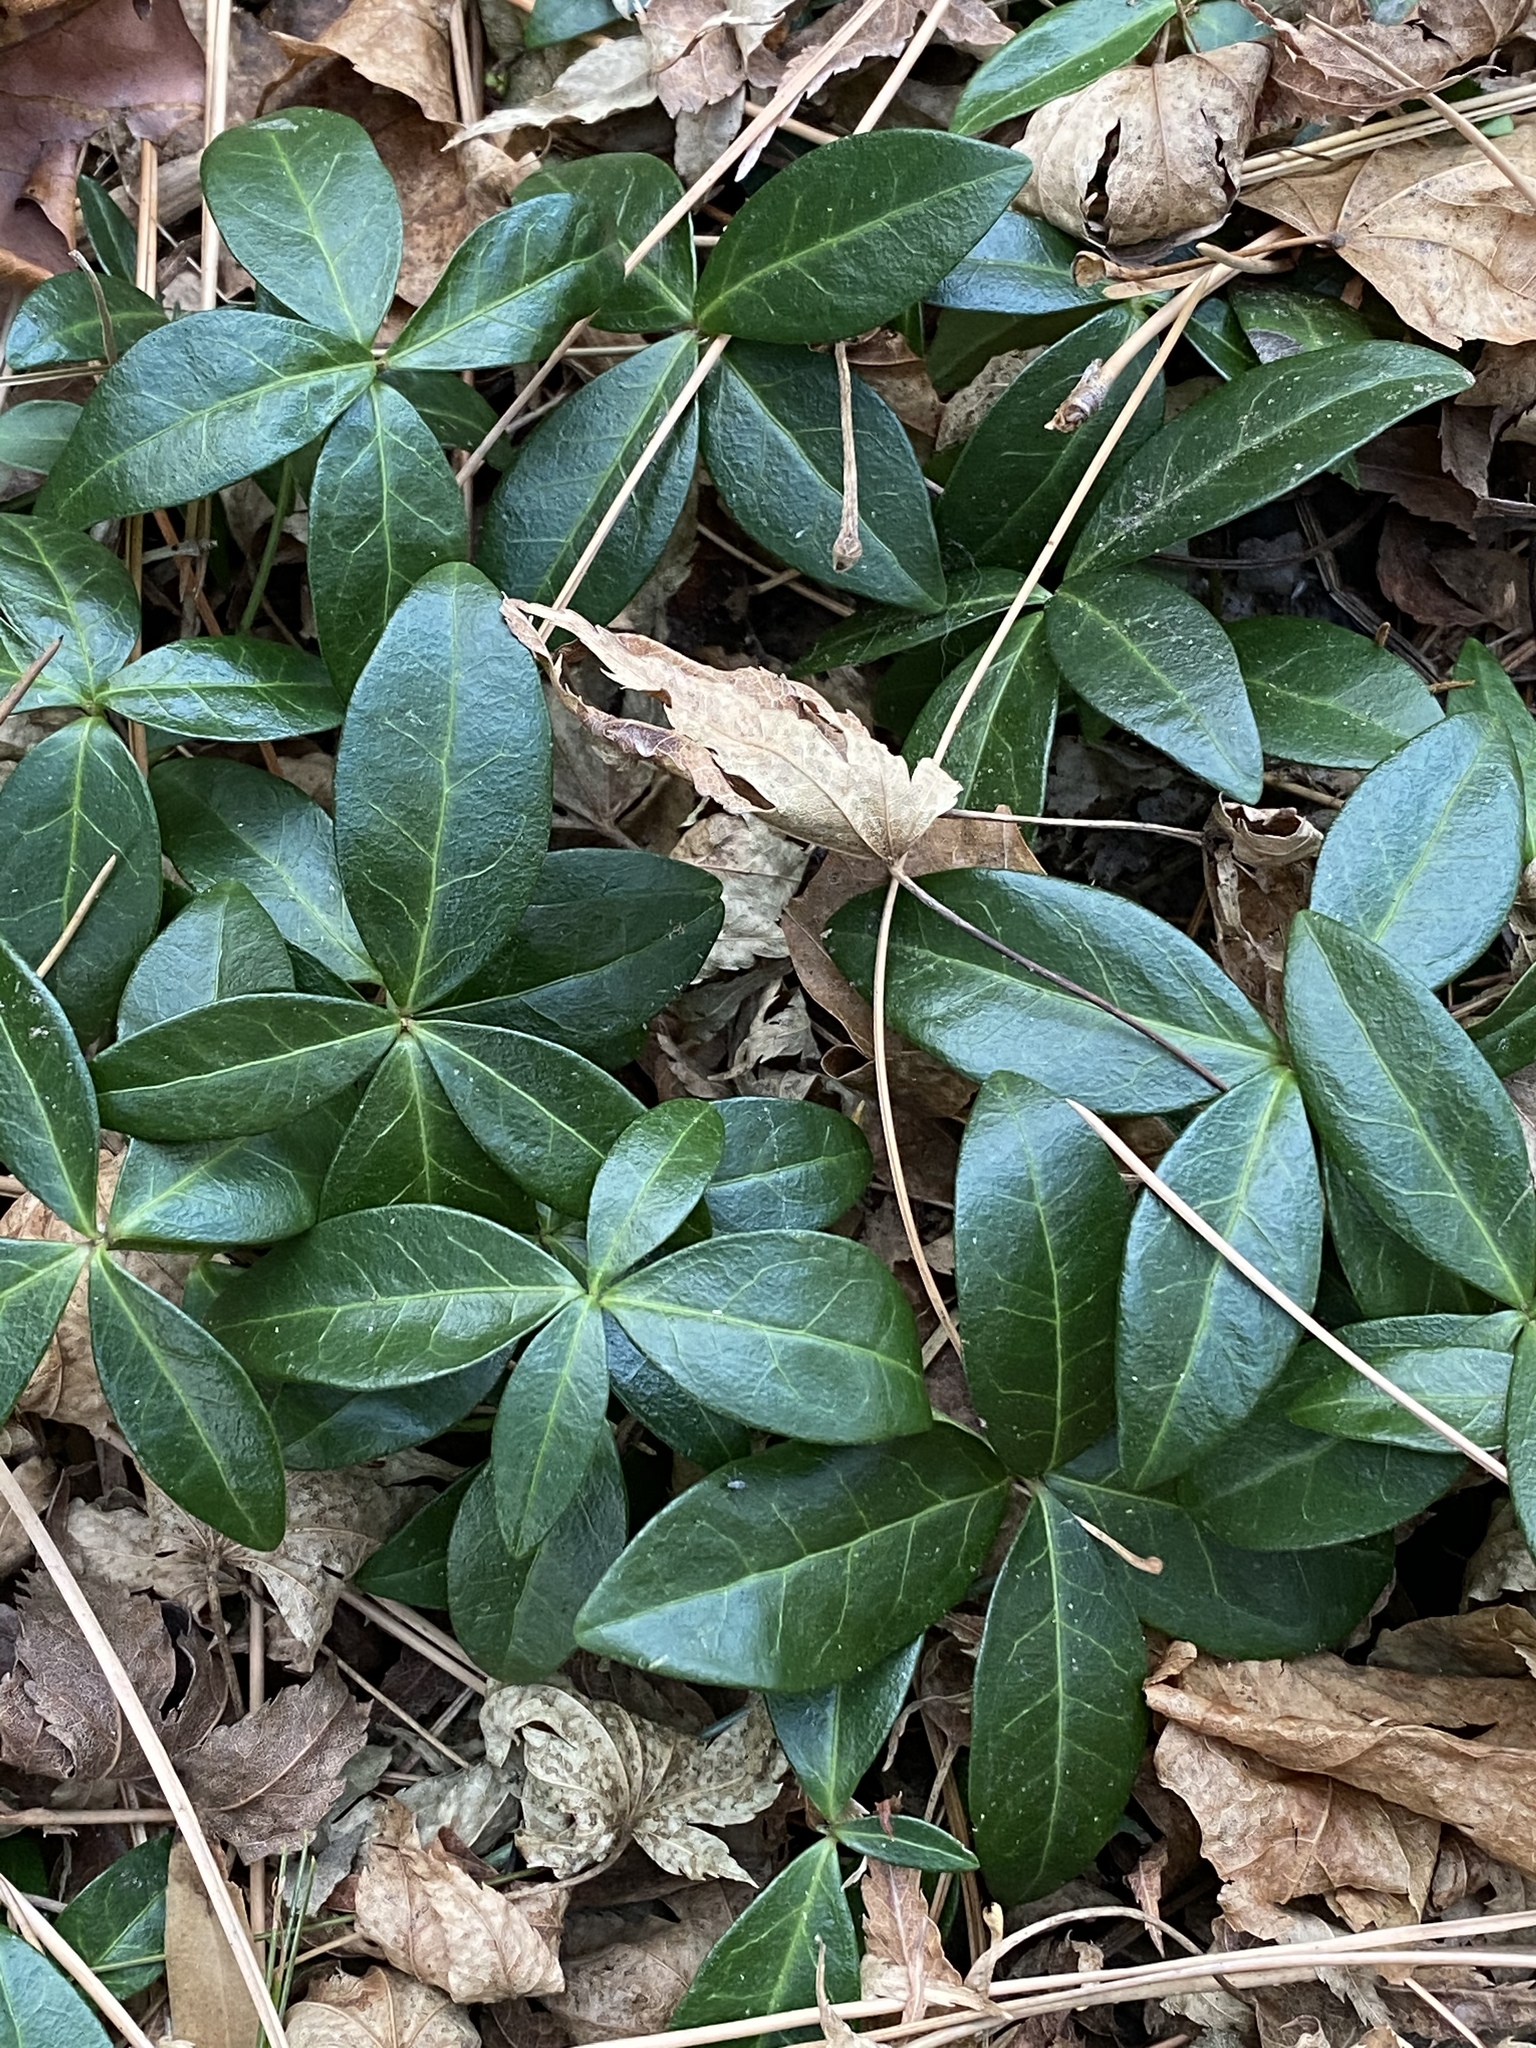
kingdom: Plantae
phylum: Tracheophyta
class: Magnoliopsida
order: Gentianales
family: Apocynaceae
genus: Vinca
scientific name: Vinca minor
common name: Lesser periwinkle
